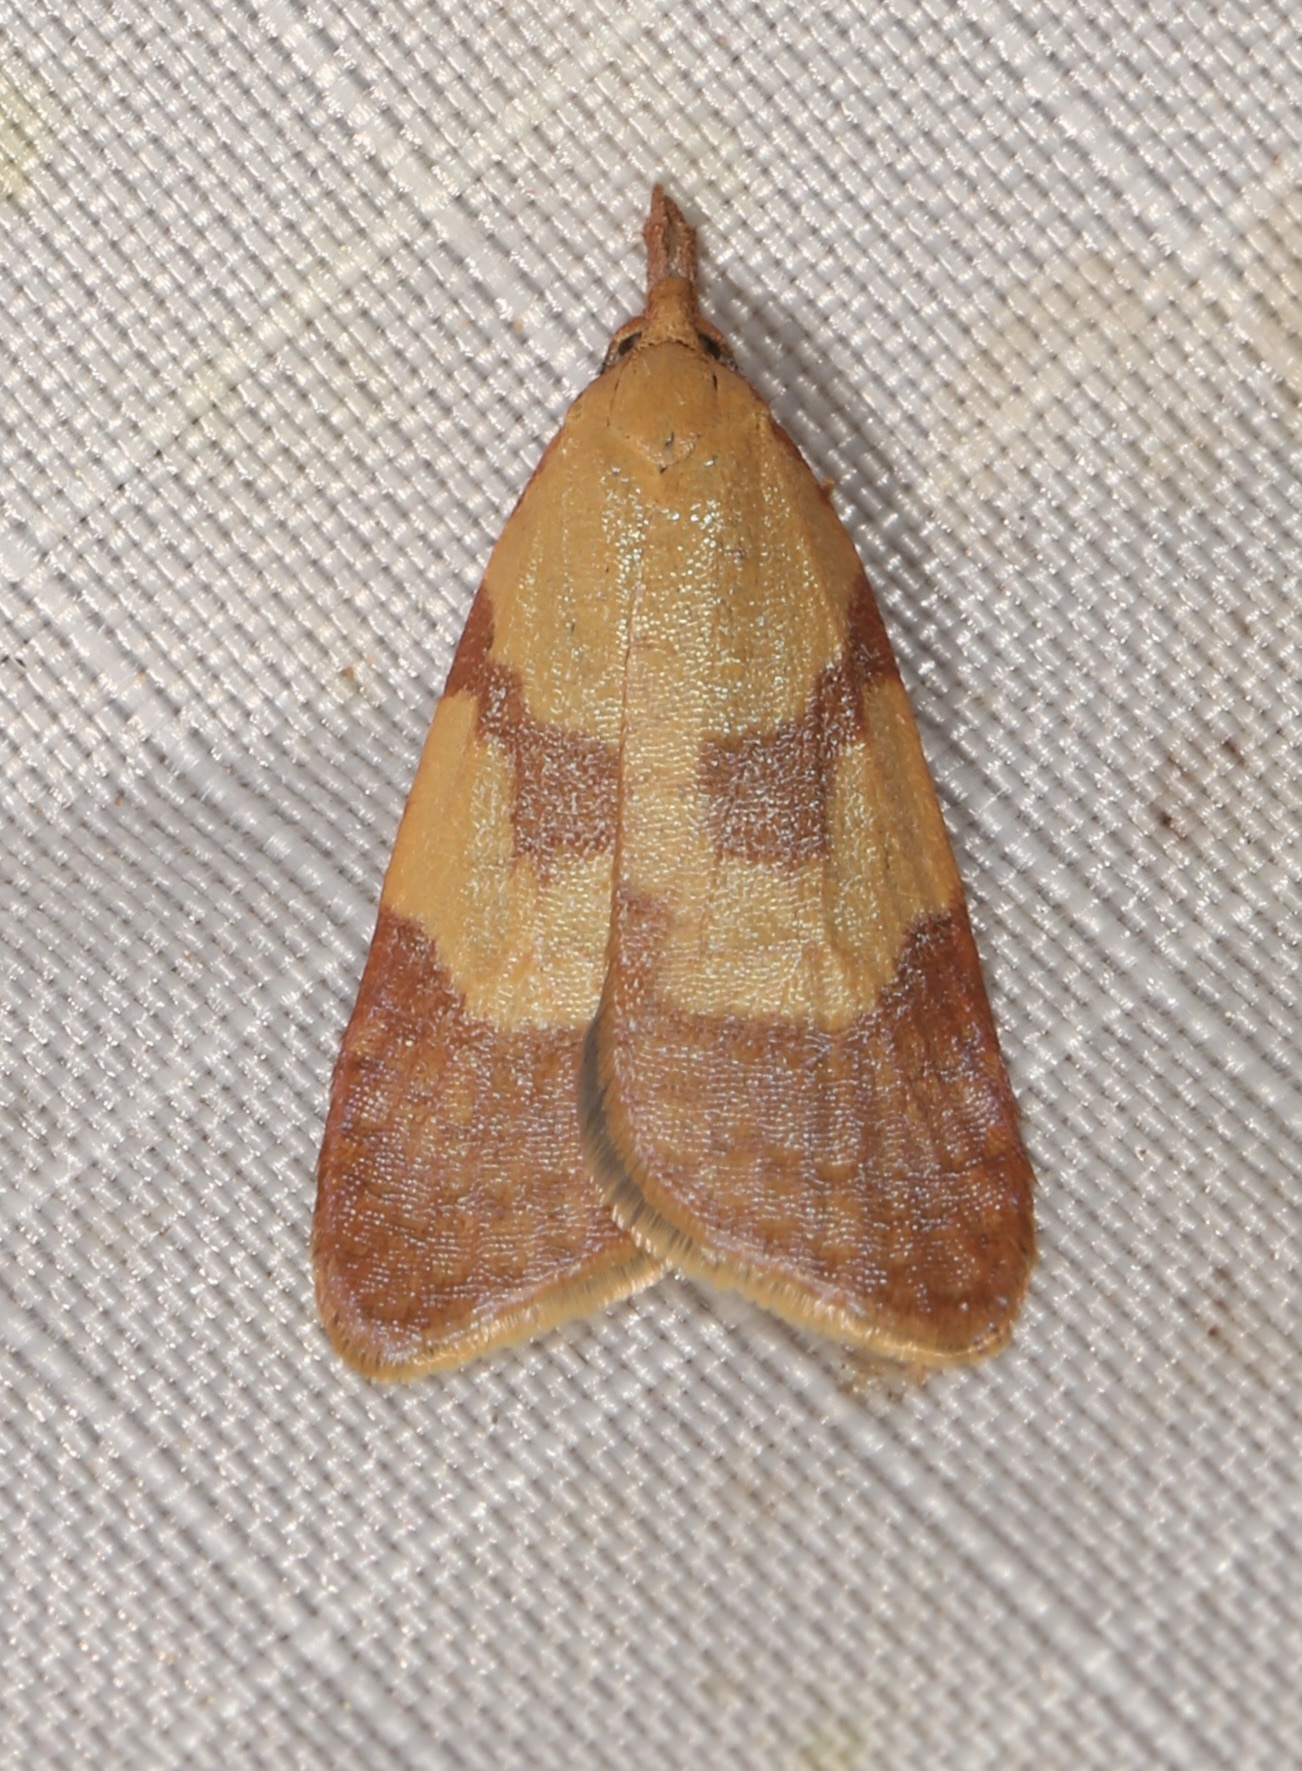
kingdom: Animalia
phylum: Arthropoda
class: Insecta
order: Lepidoptera
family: Tortricidae
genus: Sparganothis
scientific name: Sparganothis senecionana
